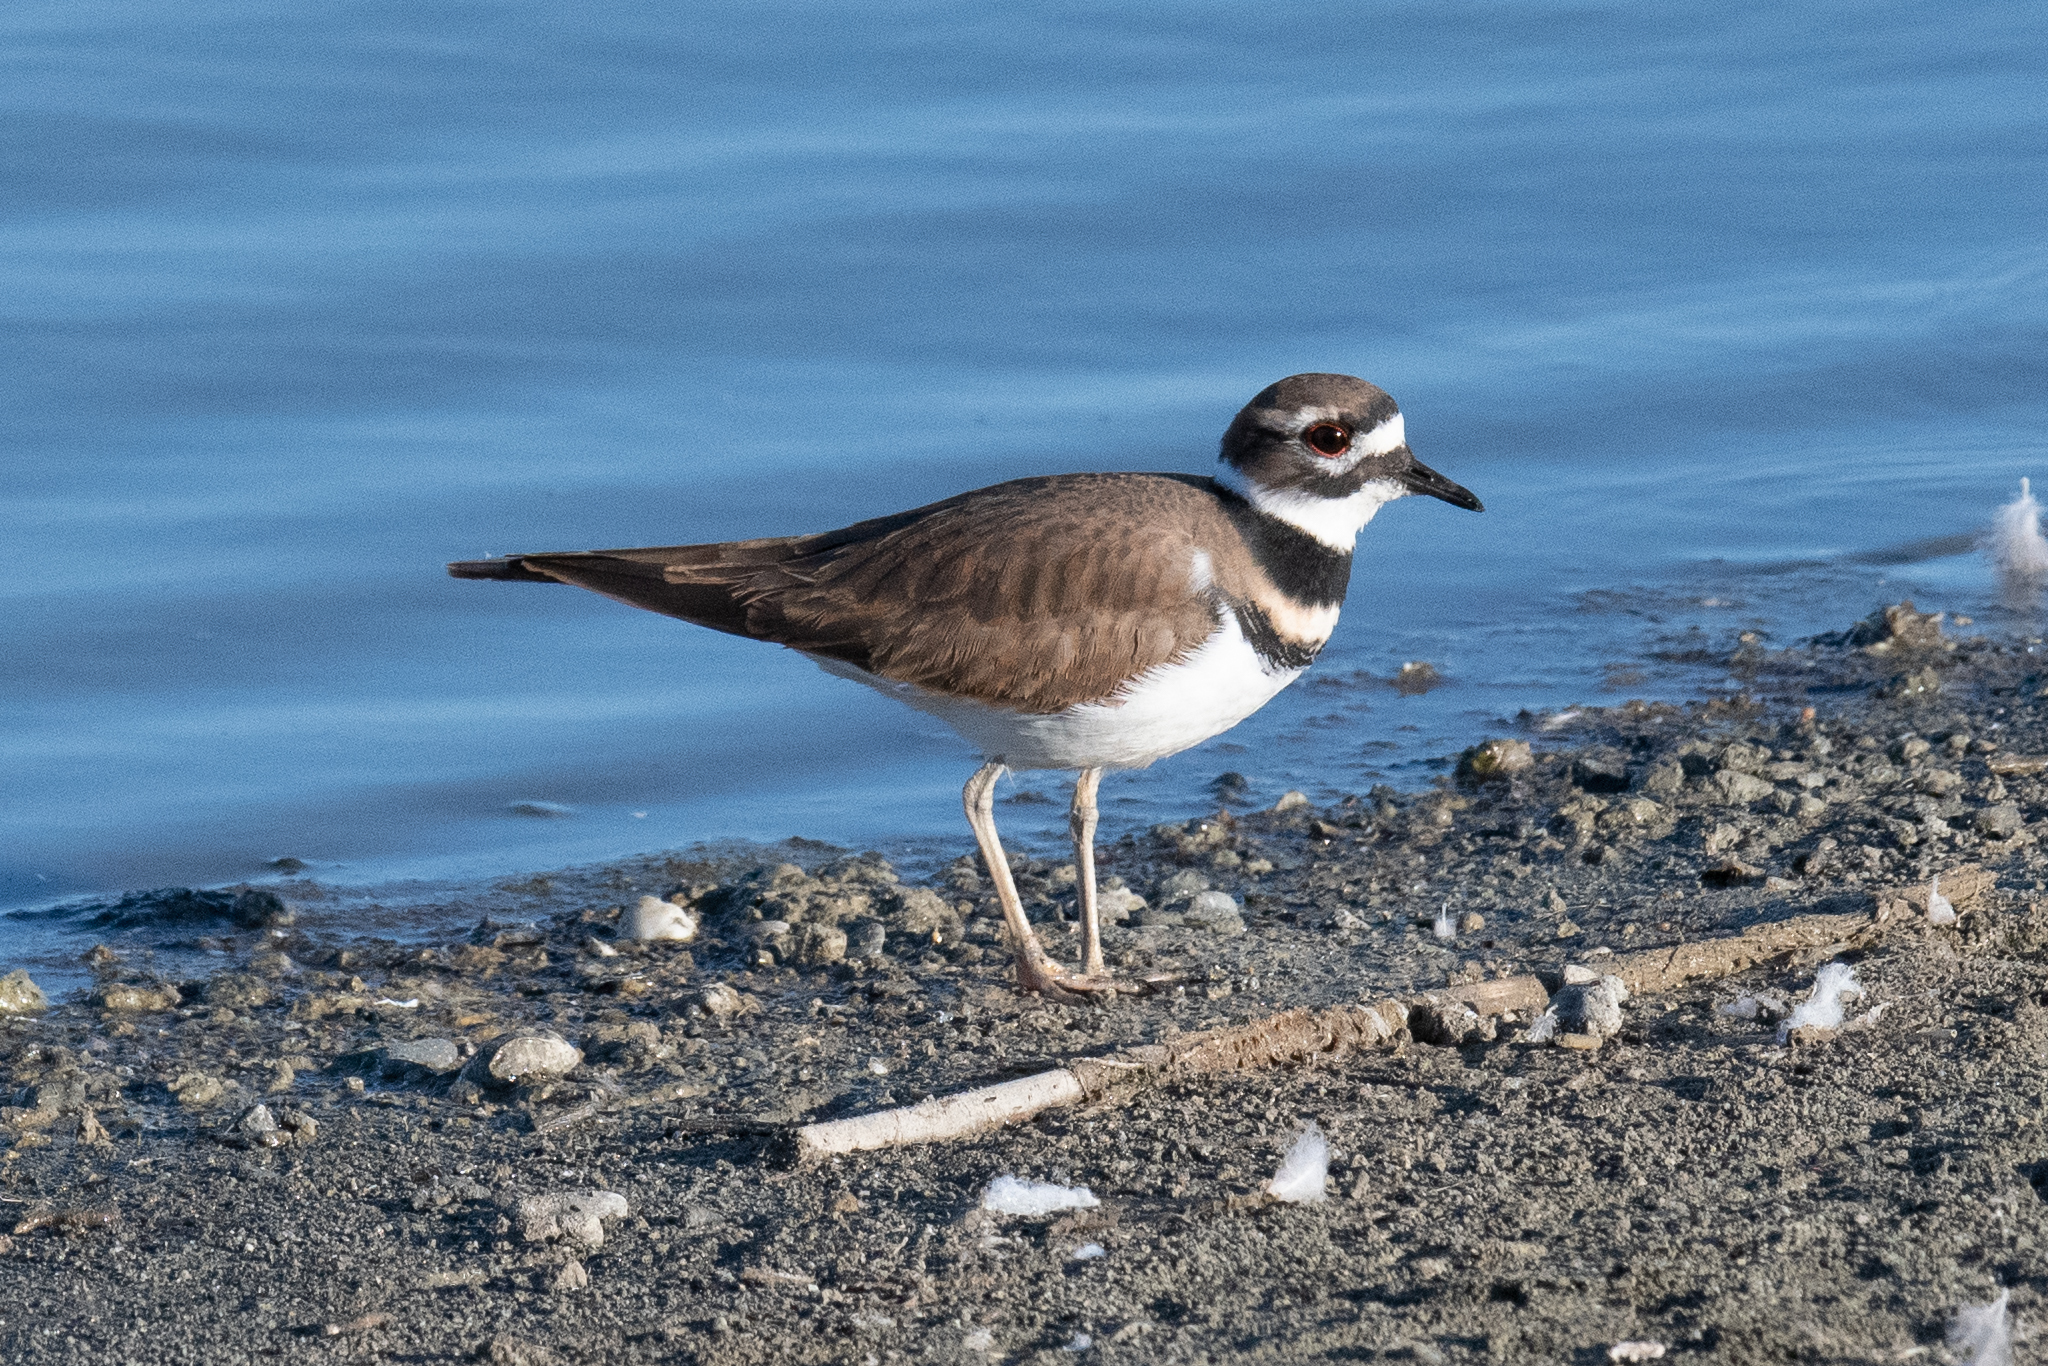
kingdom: Animalia
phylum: Chordata
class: Aves
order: Charadriiformes
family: Charadriidae
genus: Charadrius
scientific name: Charadrius vociferus
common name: Killdeer
